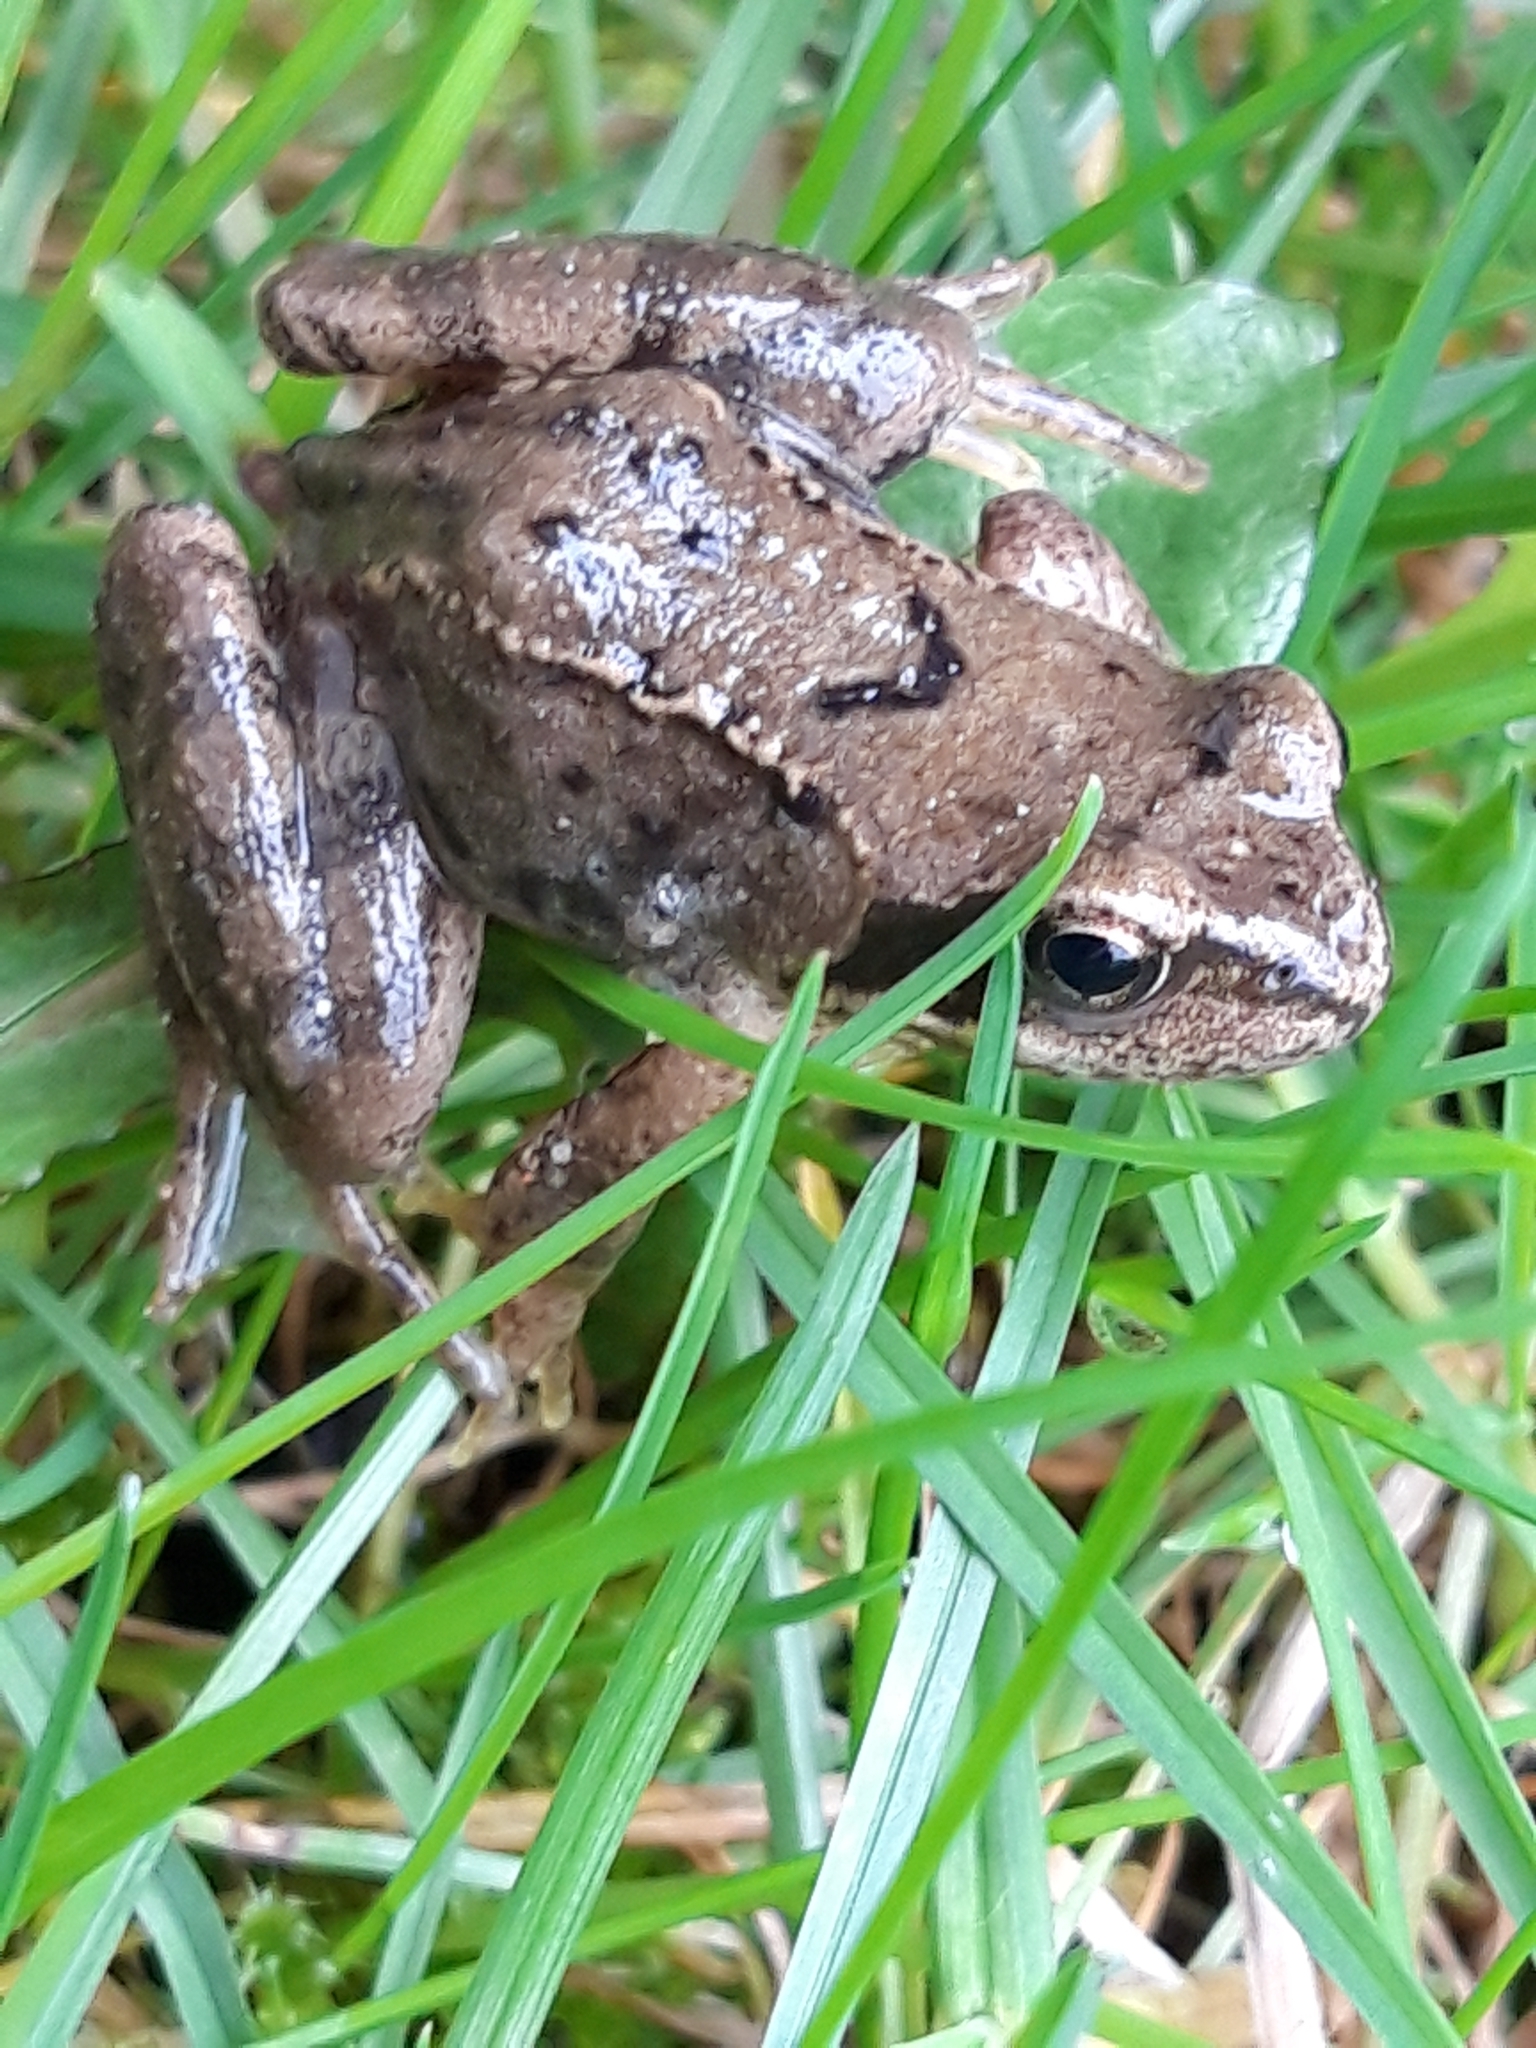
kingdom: Animalia
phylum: Chordata
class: Amphibia
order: Anura
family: Ranidae
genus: Rana
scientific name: Rana temporaria
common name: Common frog
